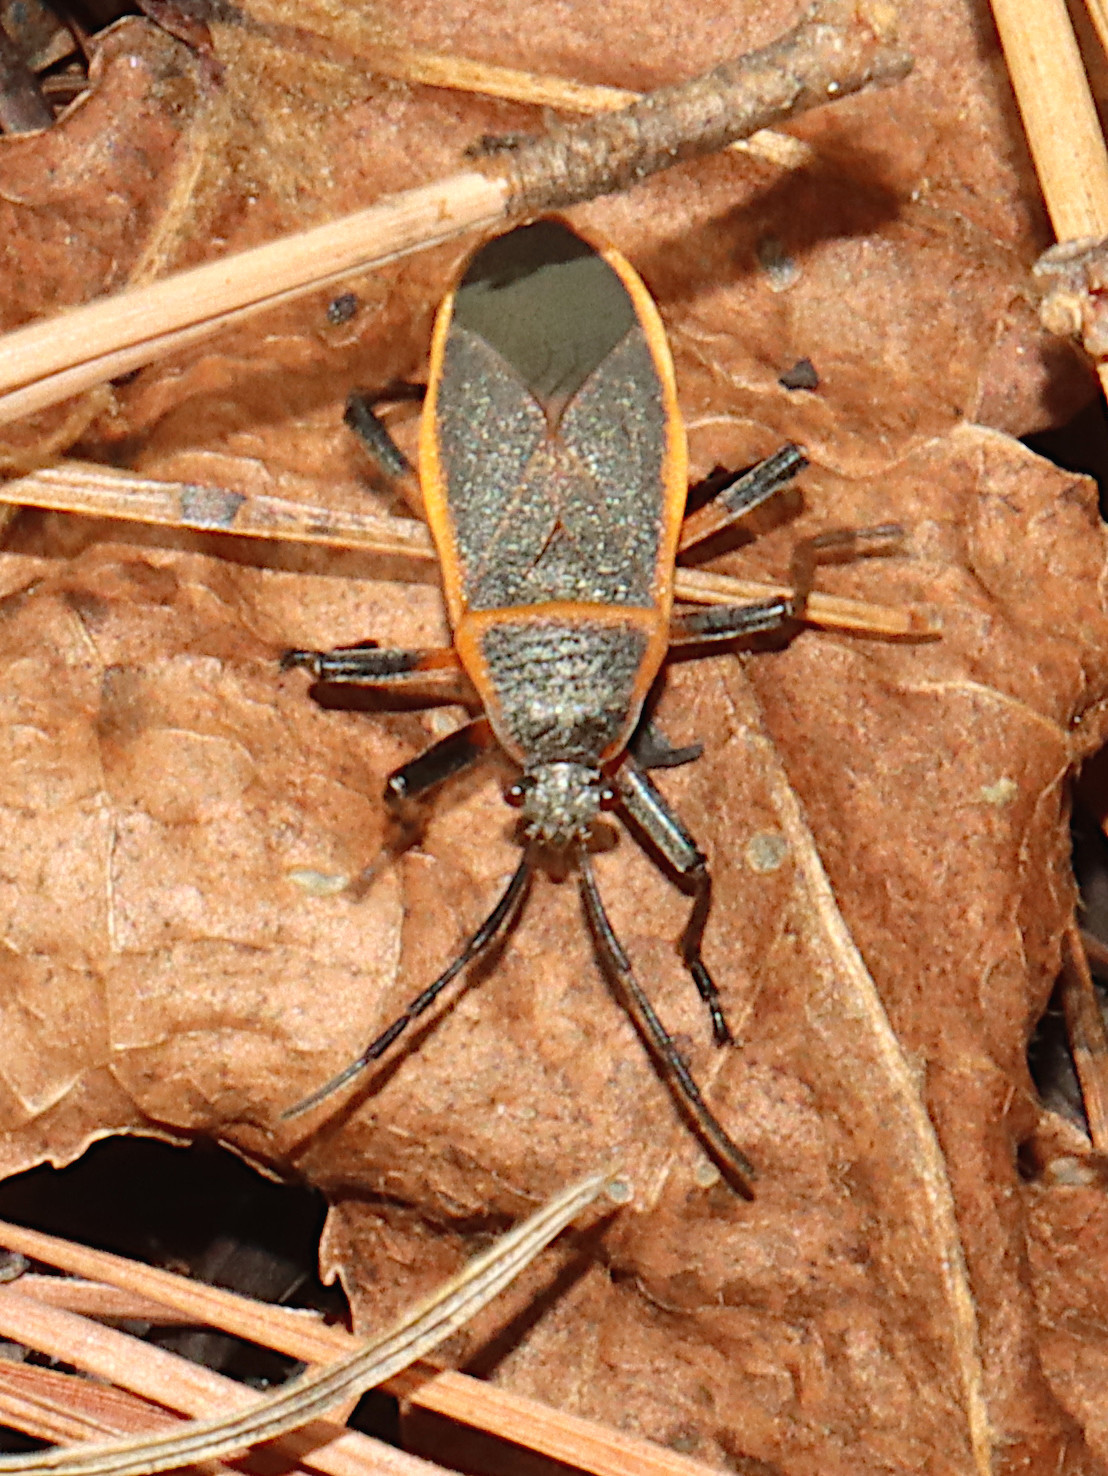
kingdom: Animalia
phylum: Arthropoda
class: Insecta
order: Hemiptera
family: Largidae
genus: Largus
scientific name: Largus succinctus
